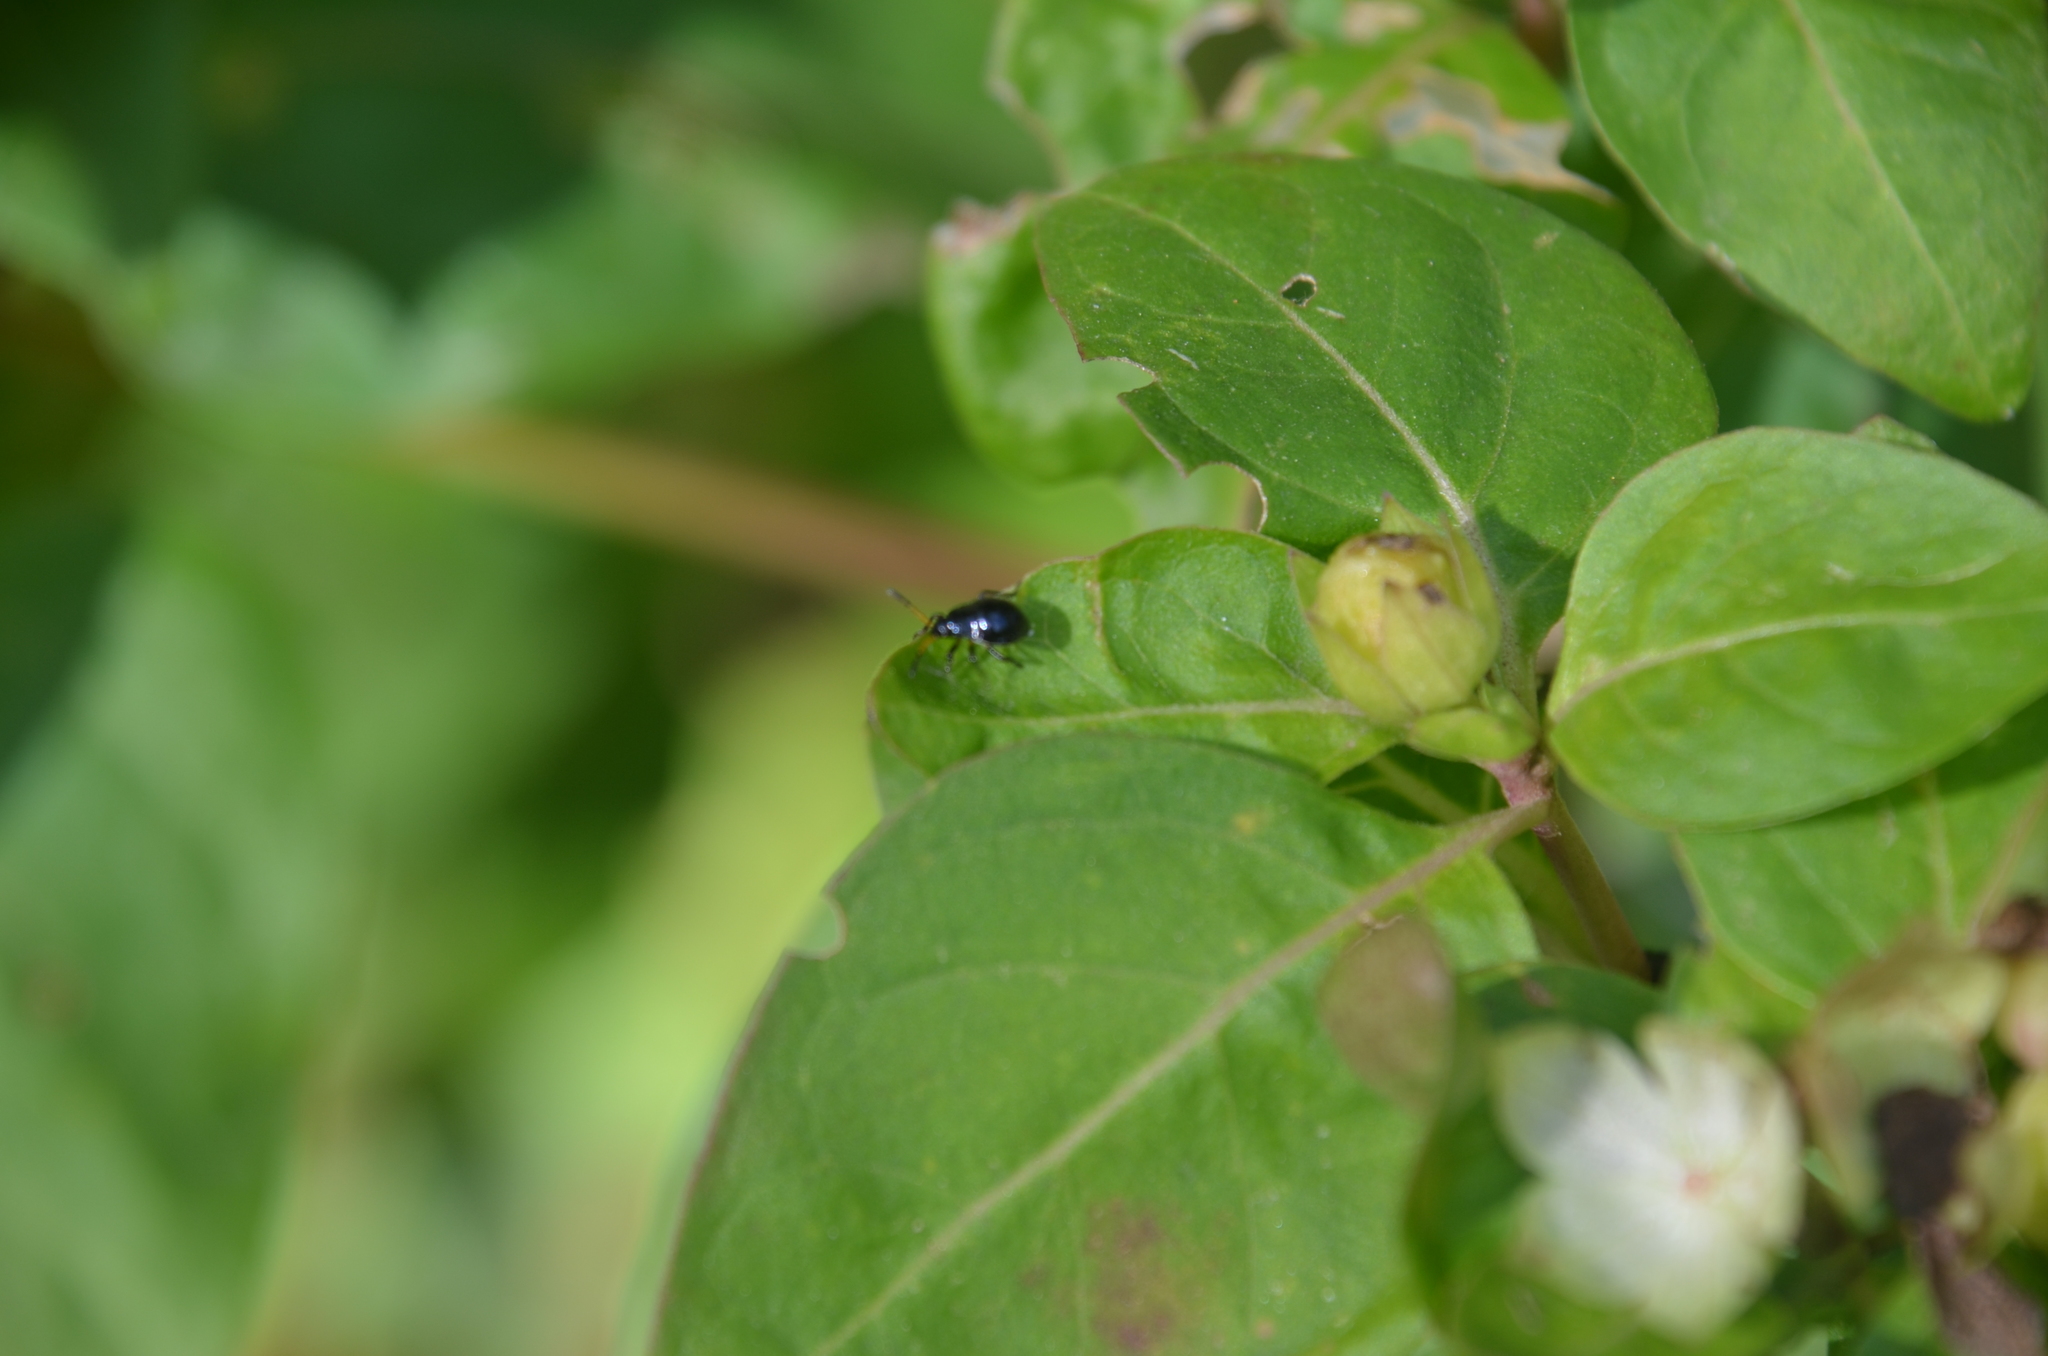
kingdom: Animalia
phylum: Arthropoda
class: Insecta
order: Hemiptera
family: Largidae
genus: Largus
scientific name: Largus fasciatus
